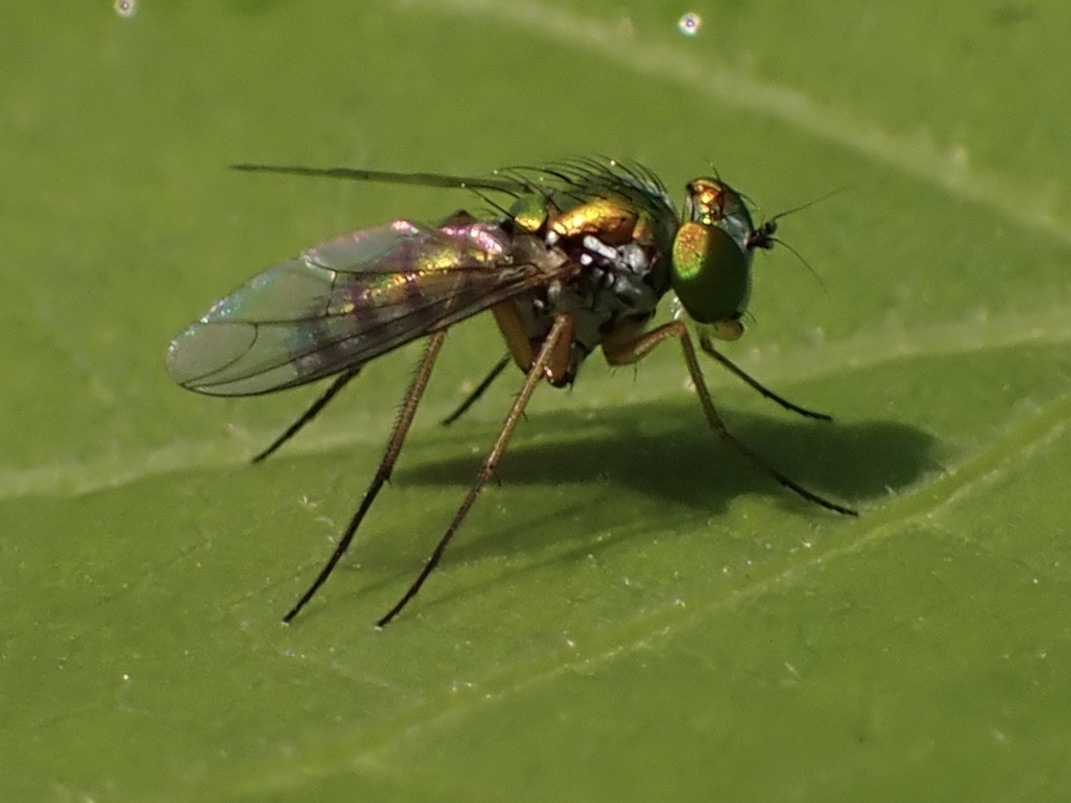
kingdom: Animalia
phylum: Arthropoda
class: Insecta
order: Diptera
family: Dolichopodidae
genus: Condylostylus
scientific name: Condylostylus
